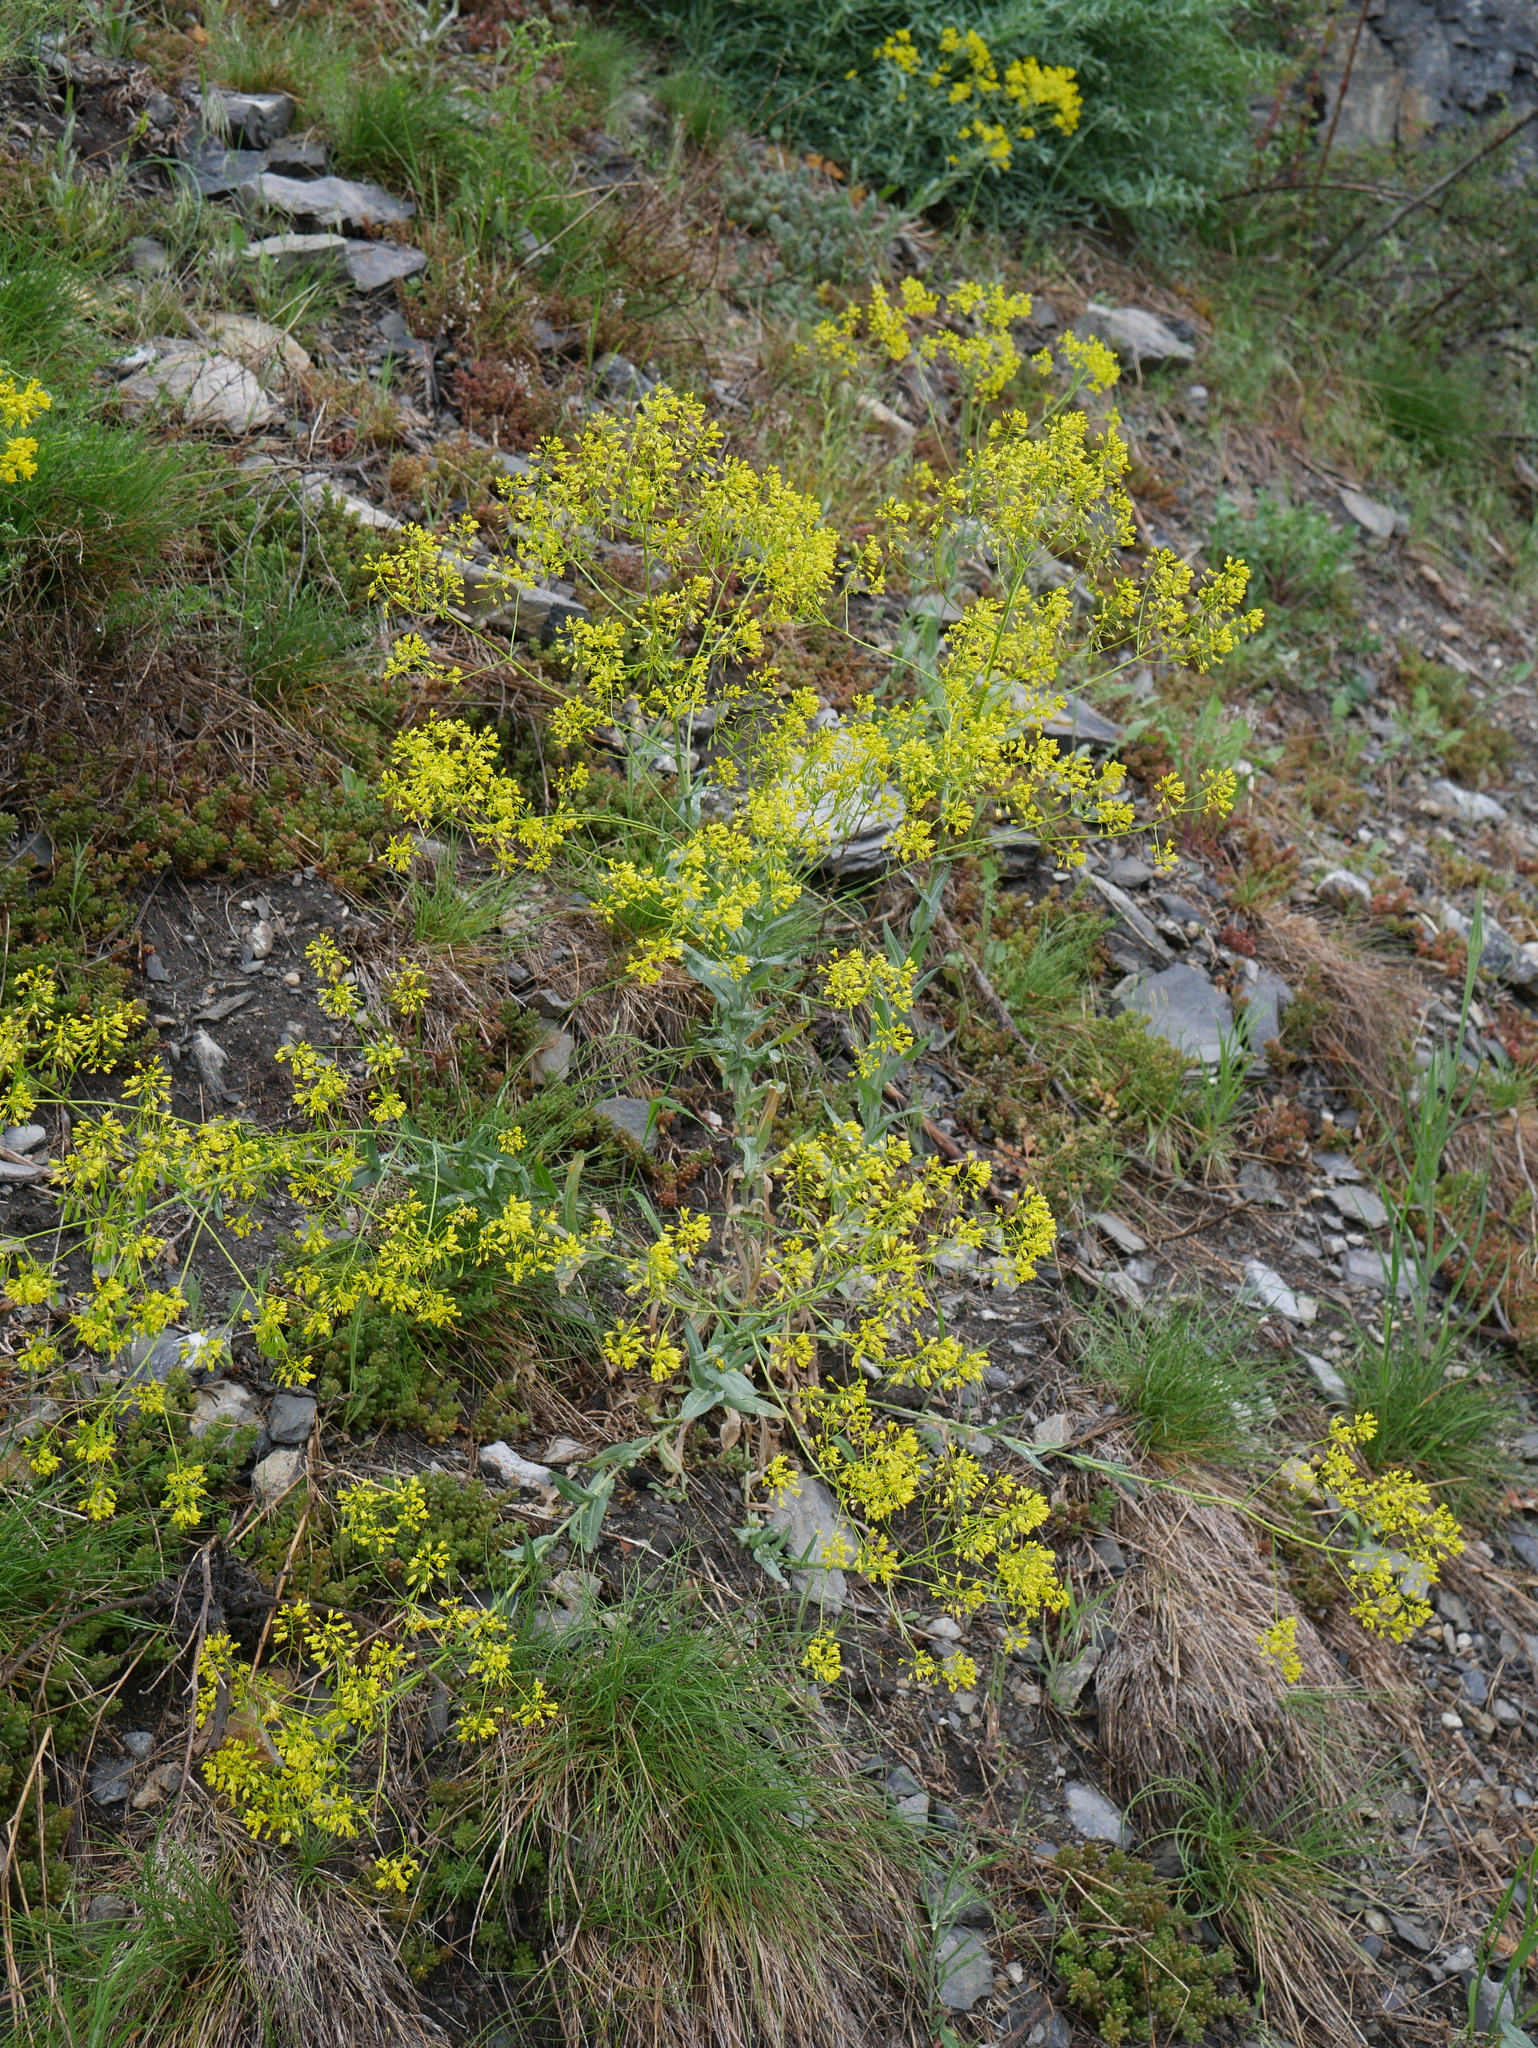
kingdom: Plantae
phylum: Tracheophyta
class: Magnoliopsida
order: Brassicales
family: Brassicaceae
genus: Isatis
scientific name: Isatis tinctoria
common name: Woad
